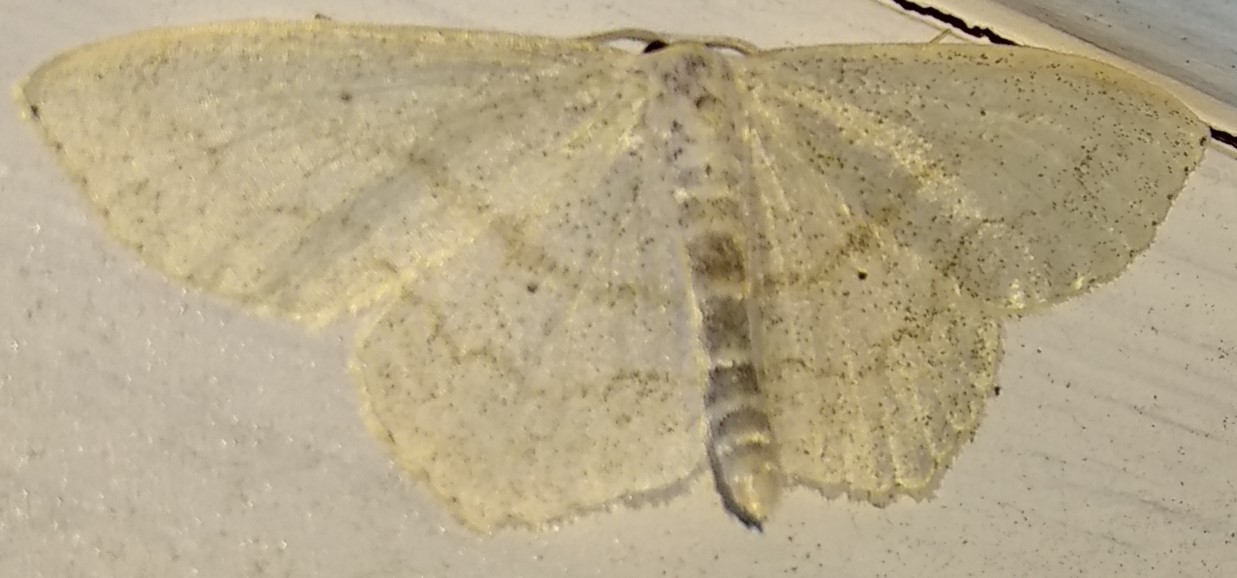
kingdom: Animalia
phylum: Arthropoda
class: Insecta
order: Lepidoptera
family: Geometridae
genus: Scopula
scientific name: Scopula limboundata
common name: Large lace border
